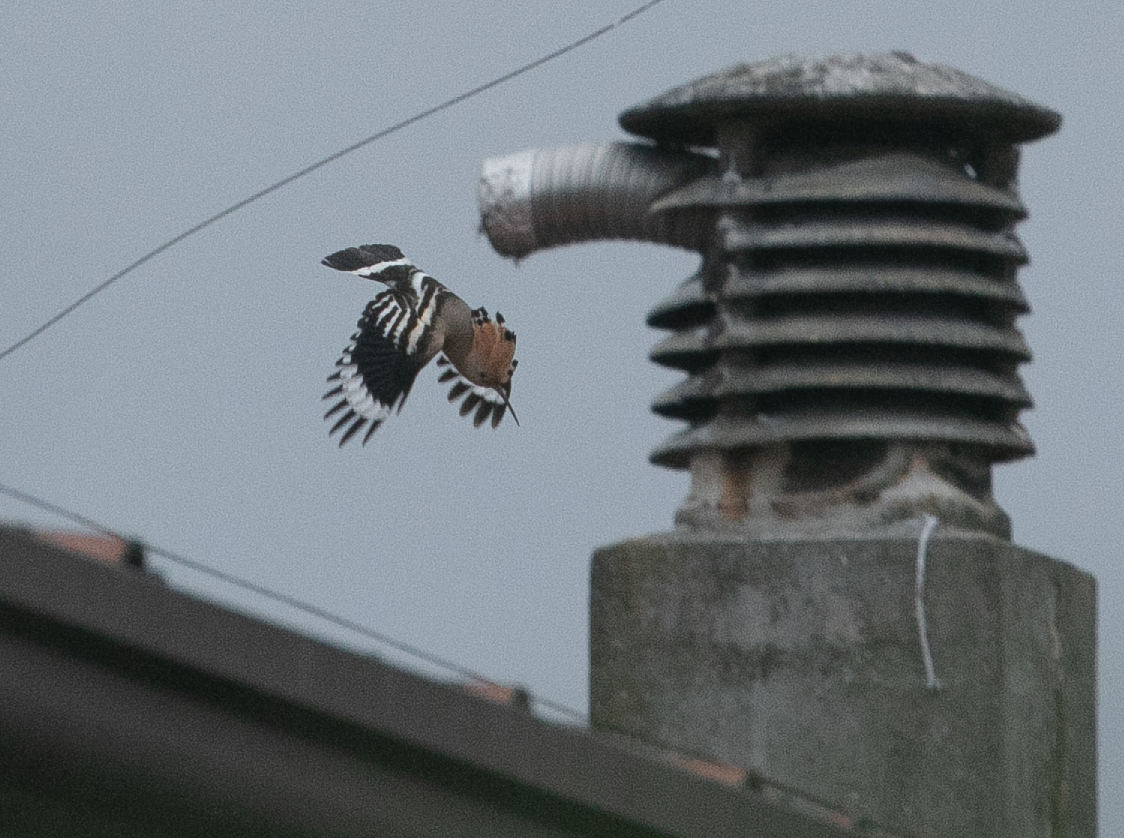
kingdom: Animalia
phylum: Chordata
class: Aves
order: Bucerotiformes
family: Upupidae
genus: Upupa
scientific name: Upupa epops
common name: Eurasian hoopoe
